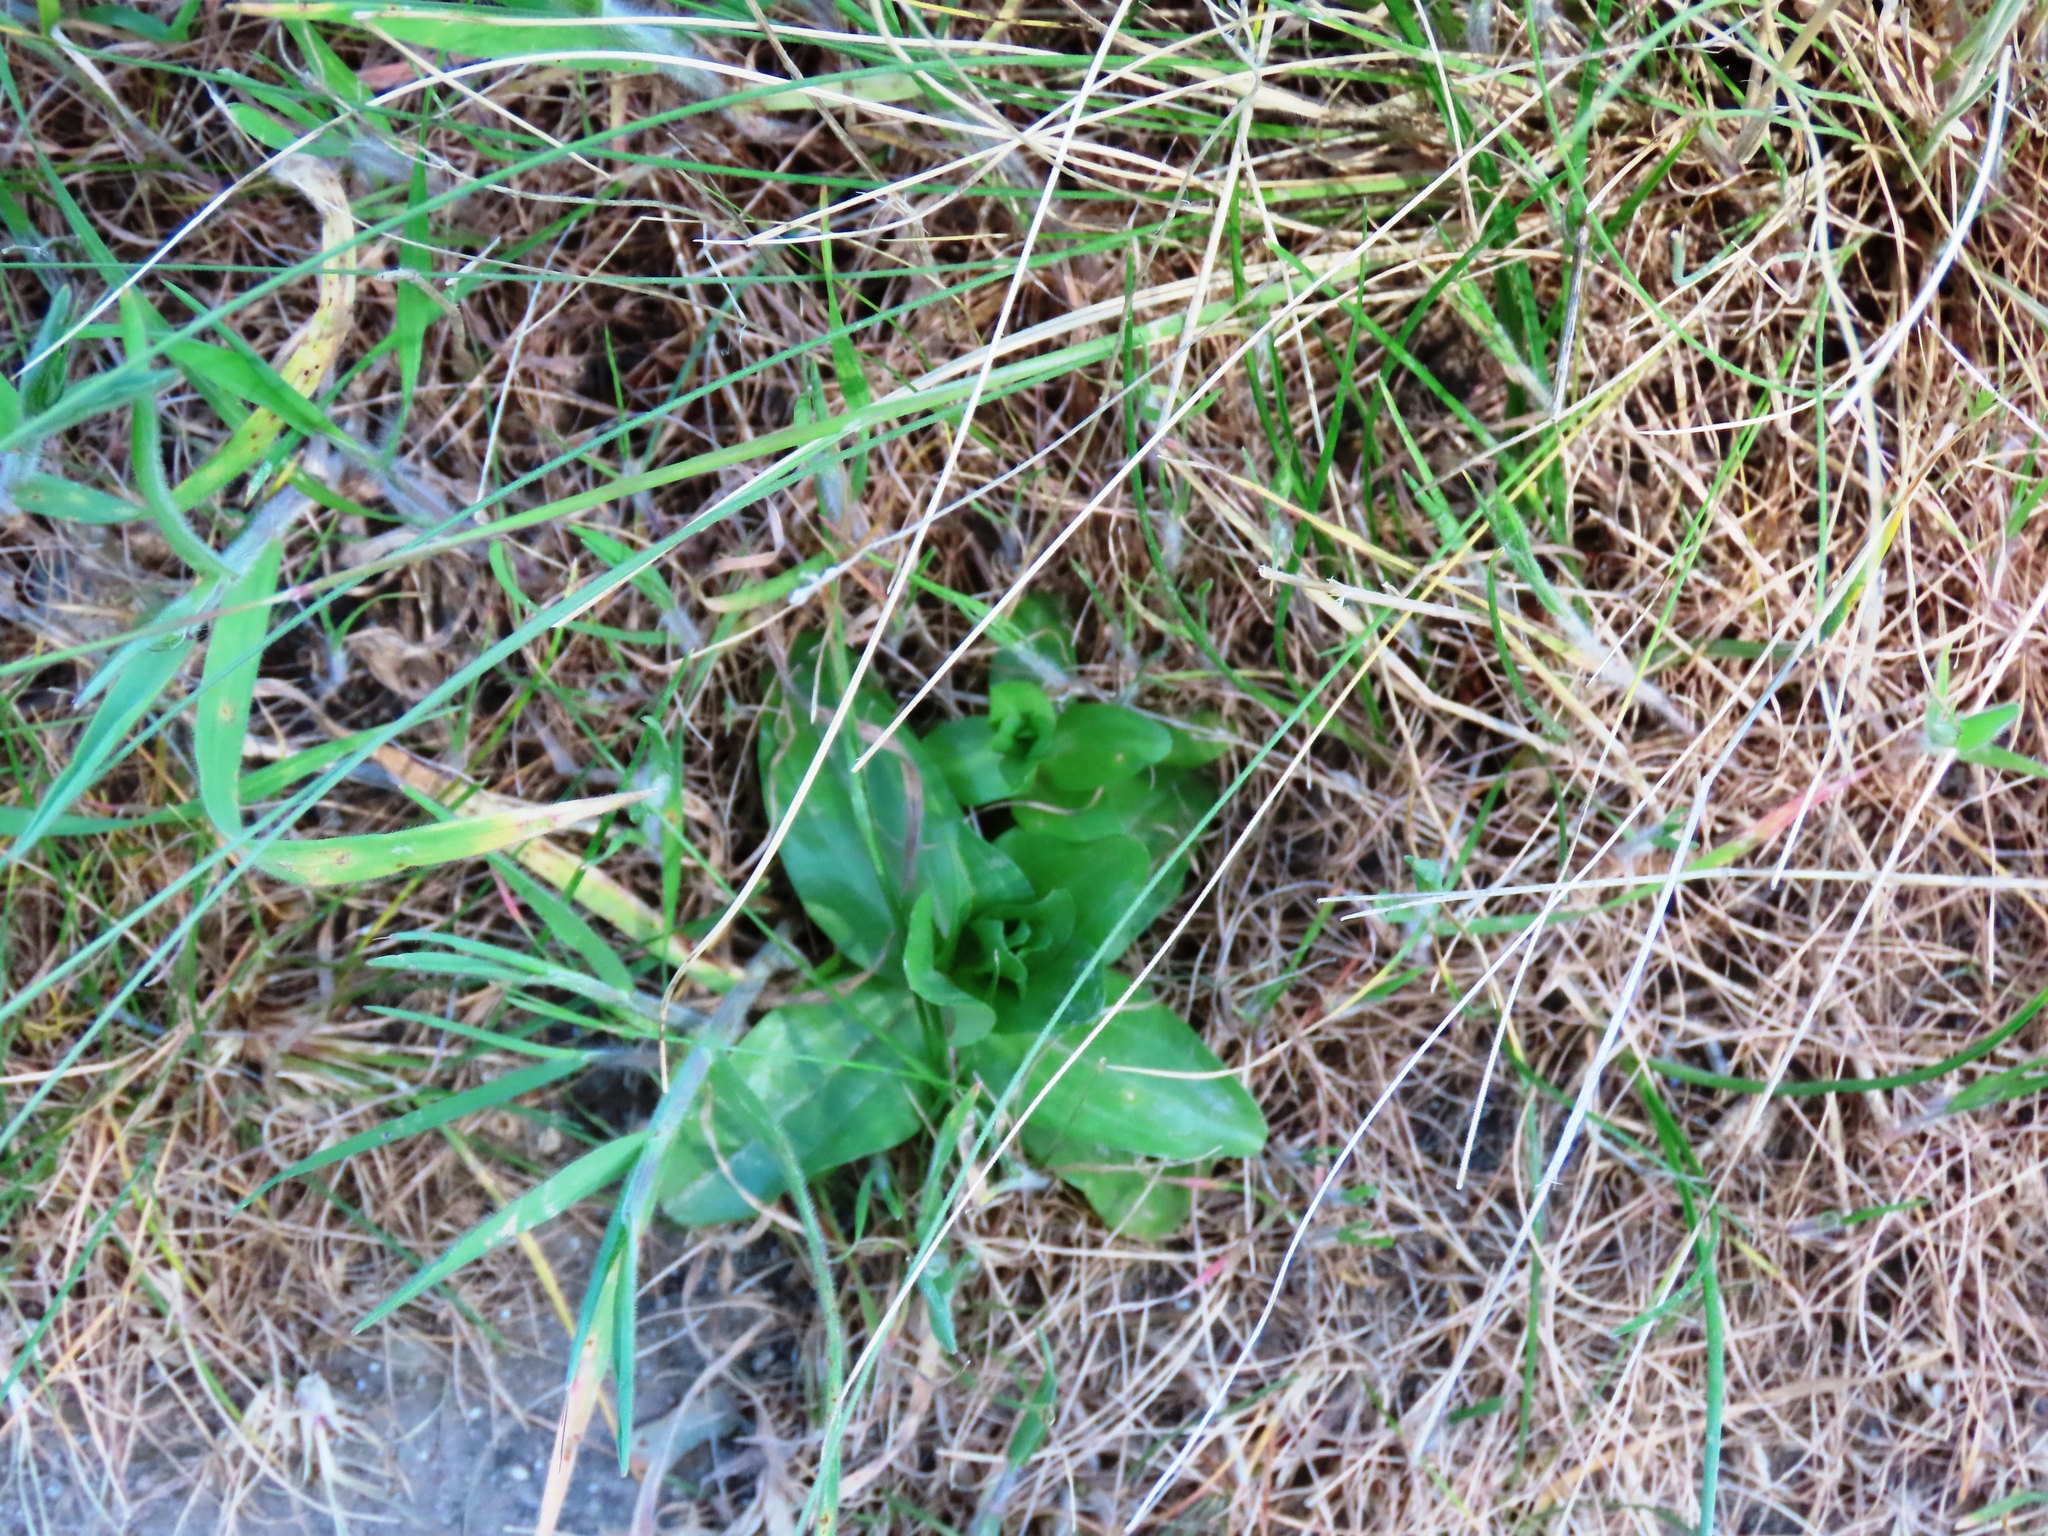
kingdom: Plantae
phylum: Tracheophyta
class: Magnoliopsida
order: Gentianales
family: Gentianaceae
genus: Centaurium
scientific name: Centaurium erythraea
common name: Common centaury
